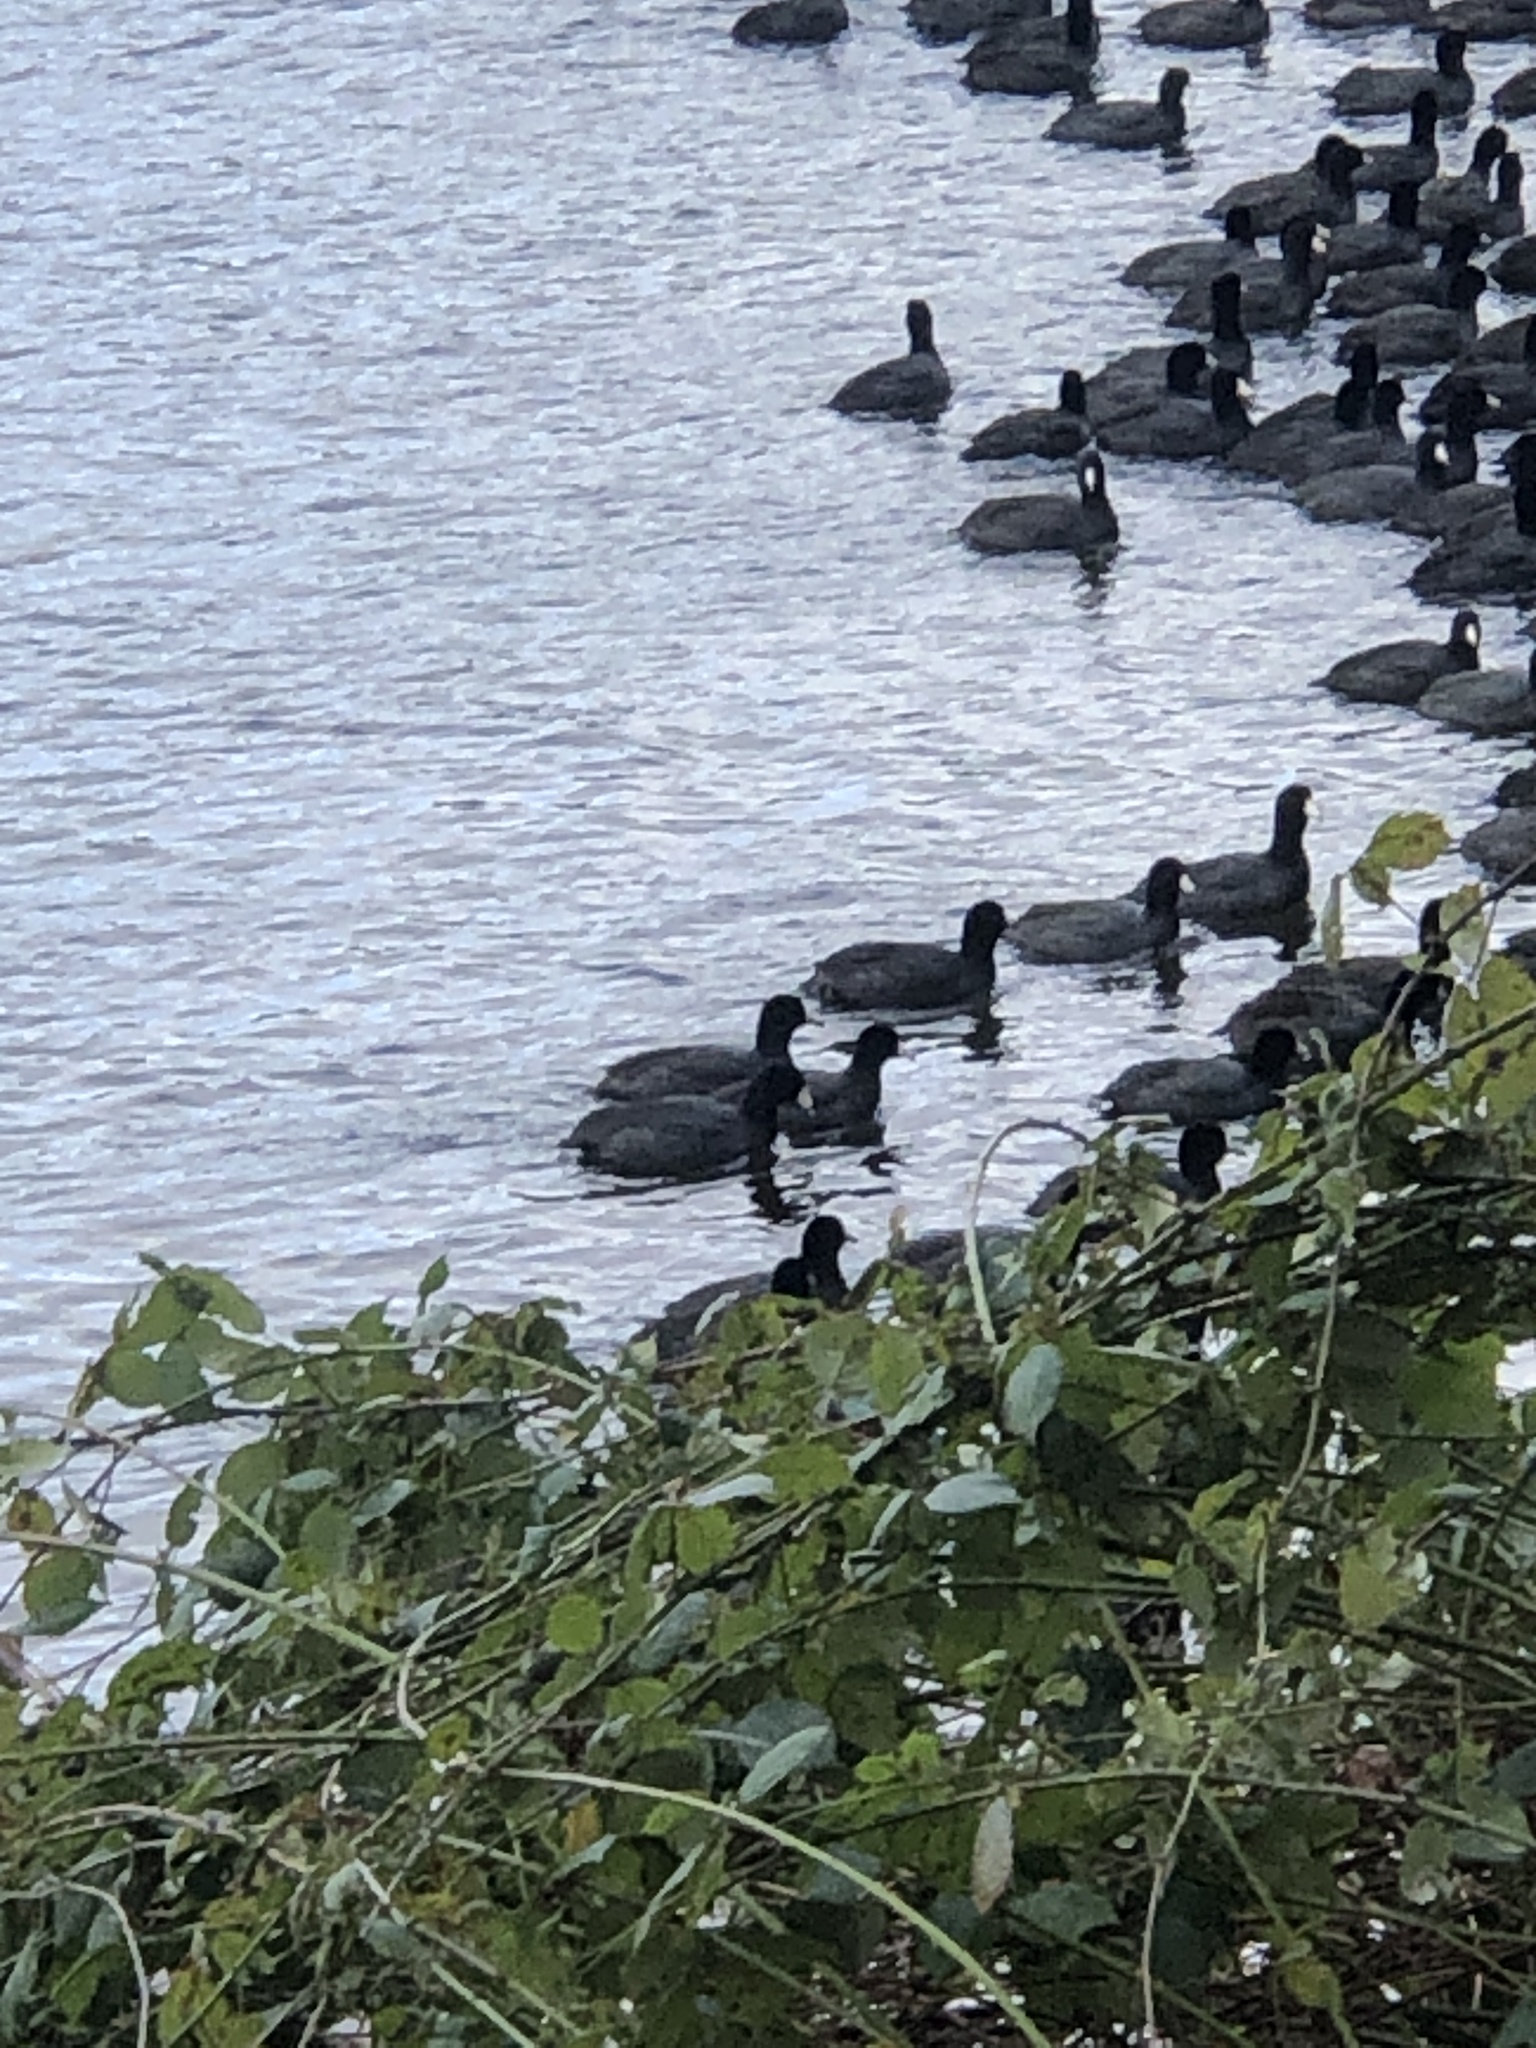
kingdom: Animalia
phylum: Chordata
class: Aves
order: Gruiformes
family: Rallidae
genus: Fulica
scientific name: Fulica americana
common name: American coot
